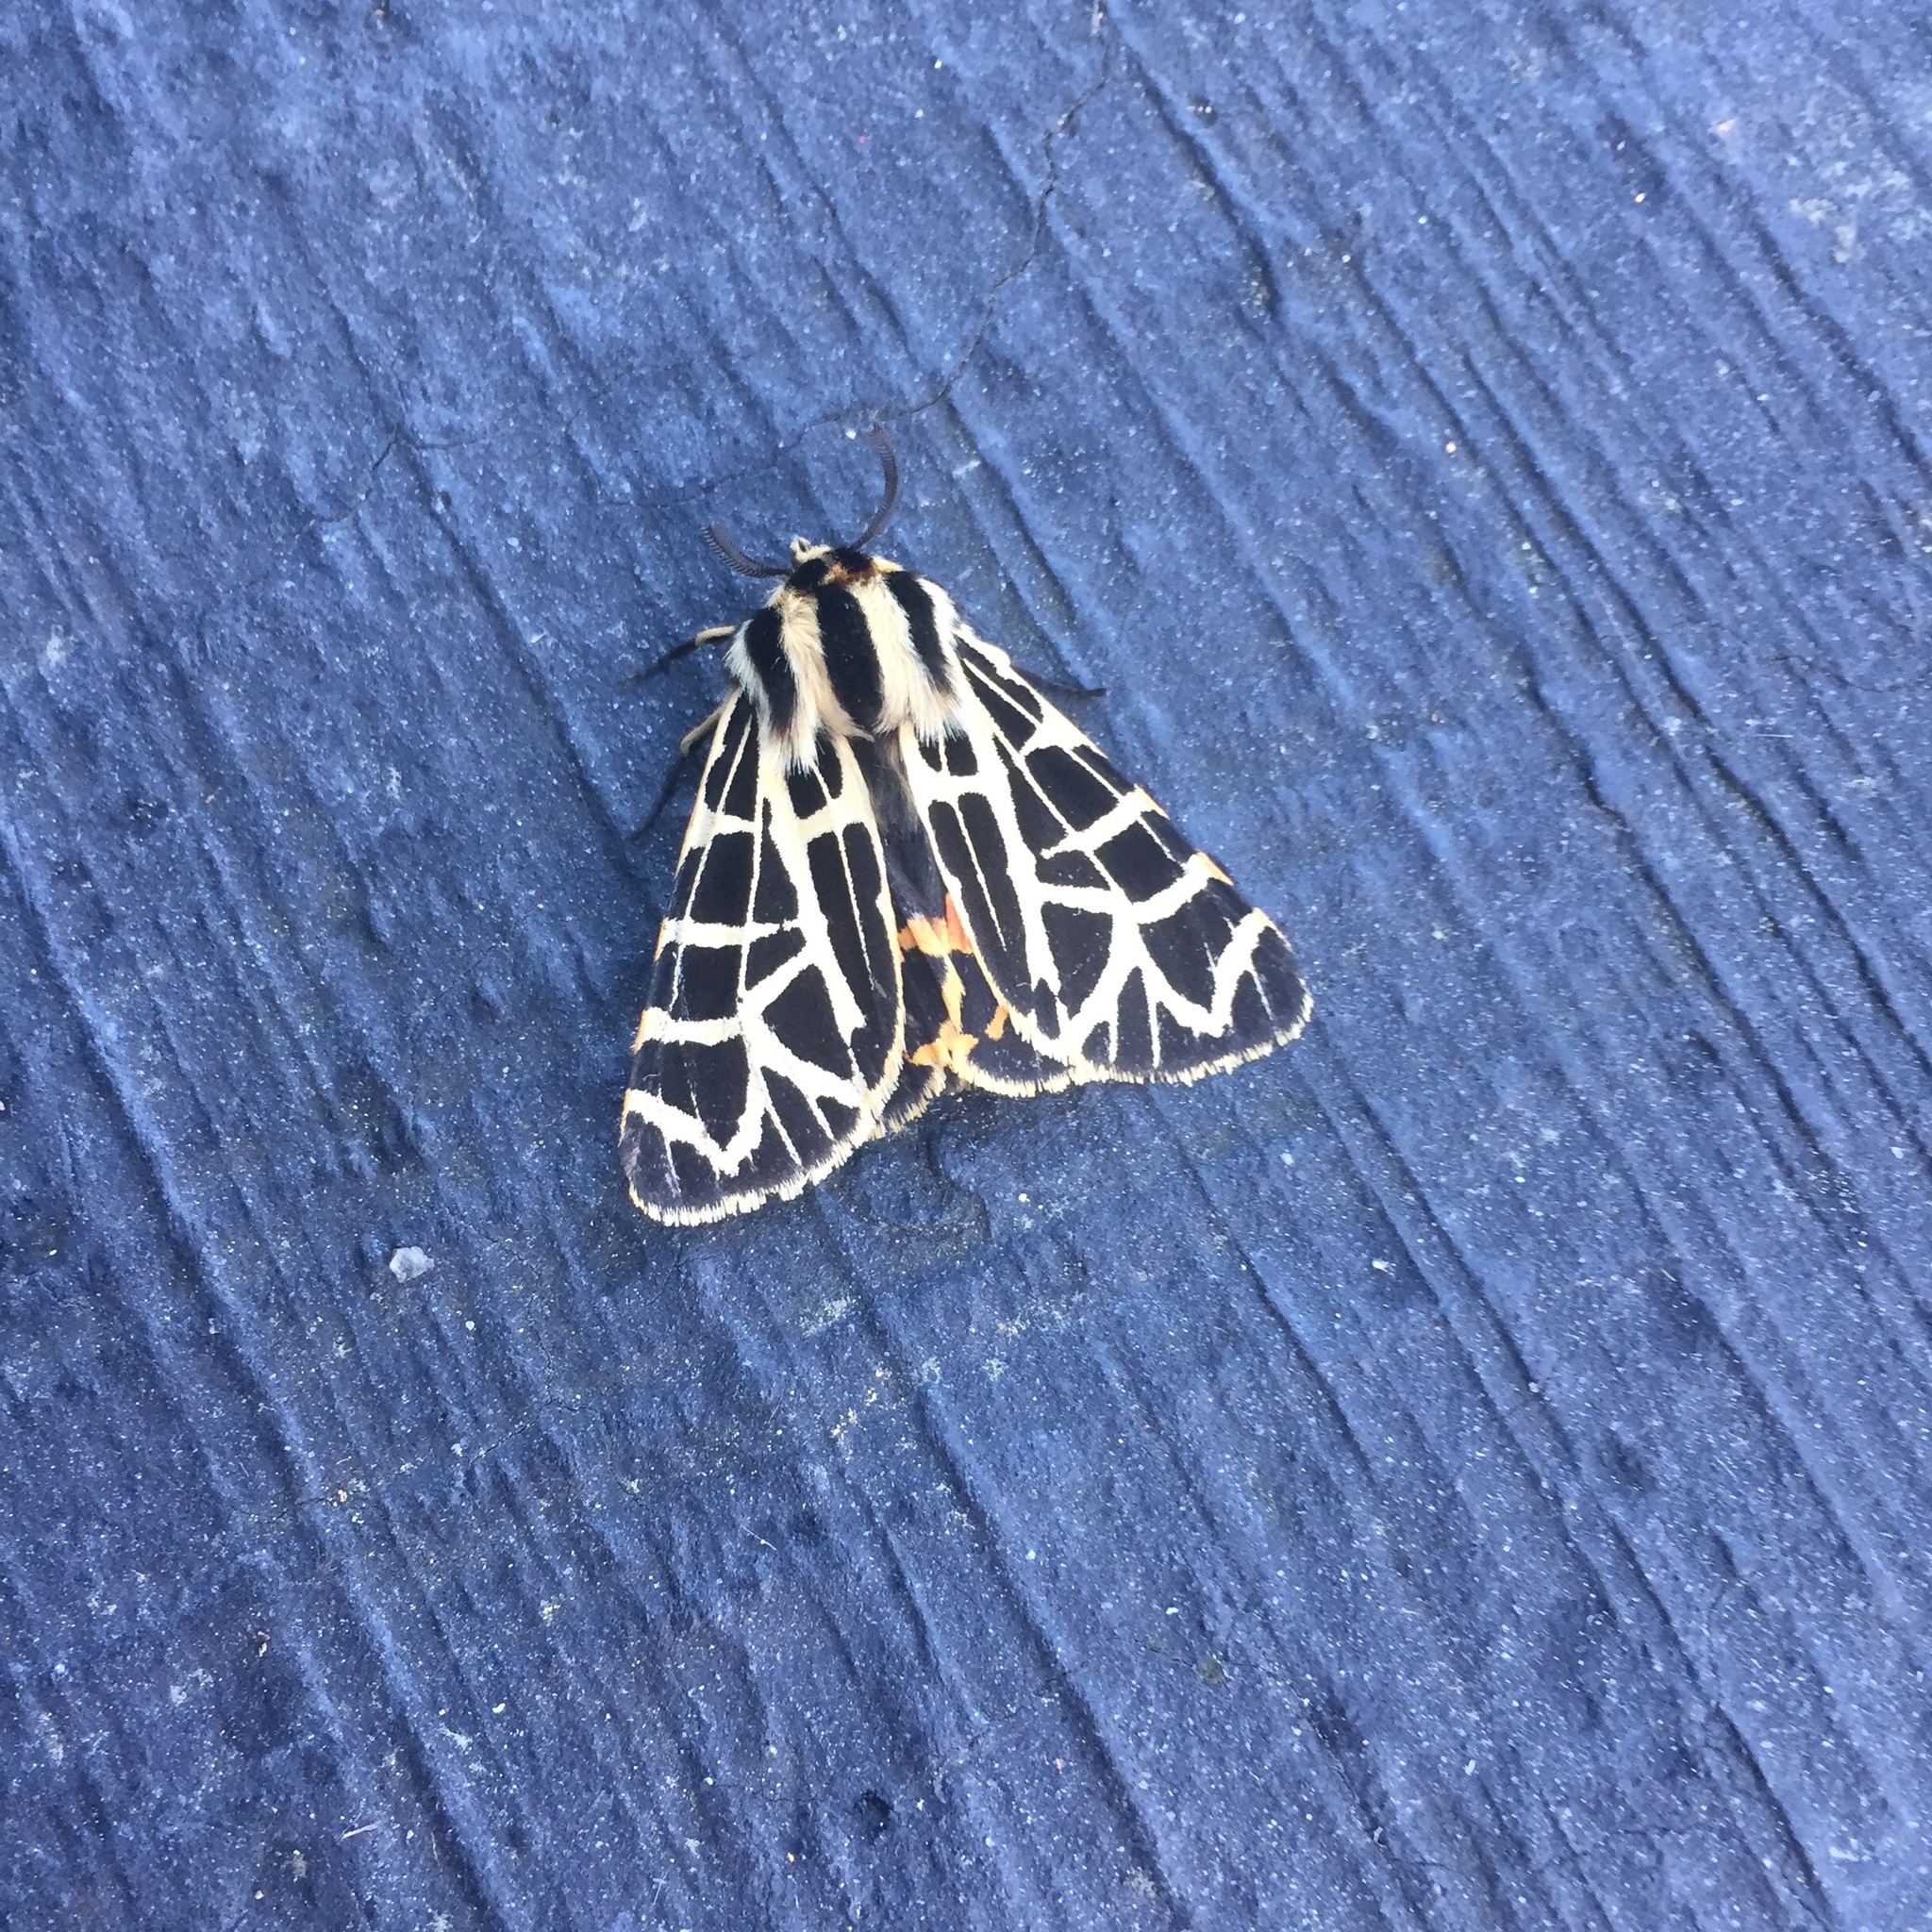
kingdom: Animalia
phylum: Arthropoda
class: Insecta
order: Lepidoptera
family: Erebidae
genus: Apantesis
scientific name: Apantesis
